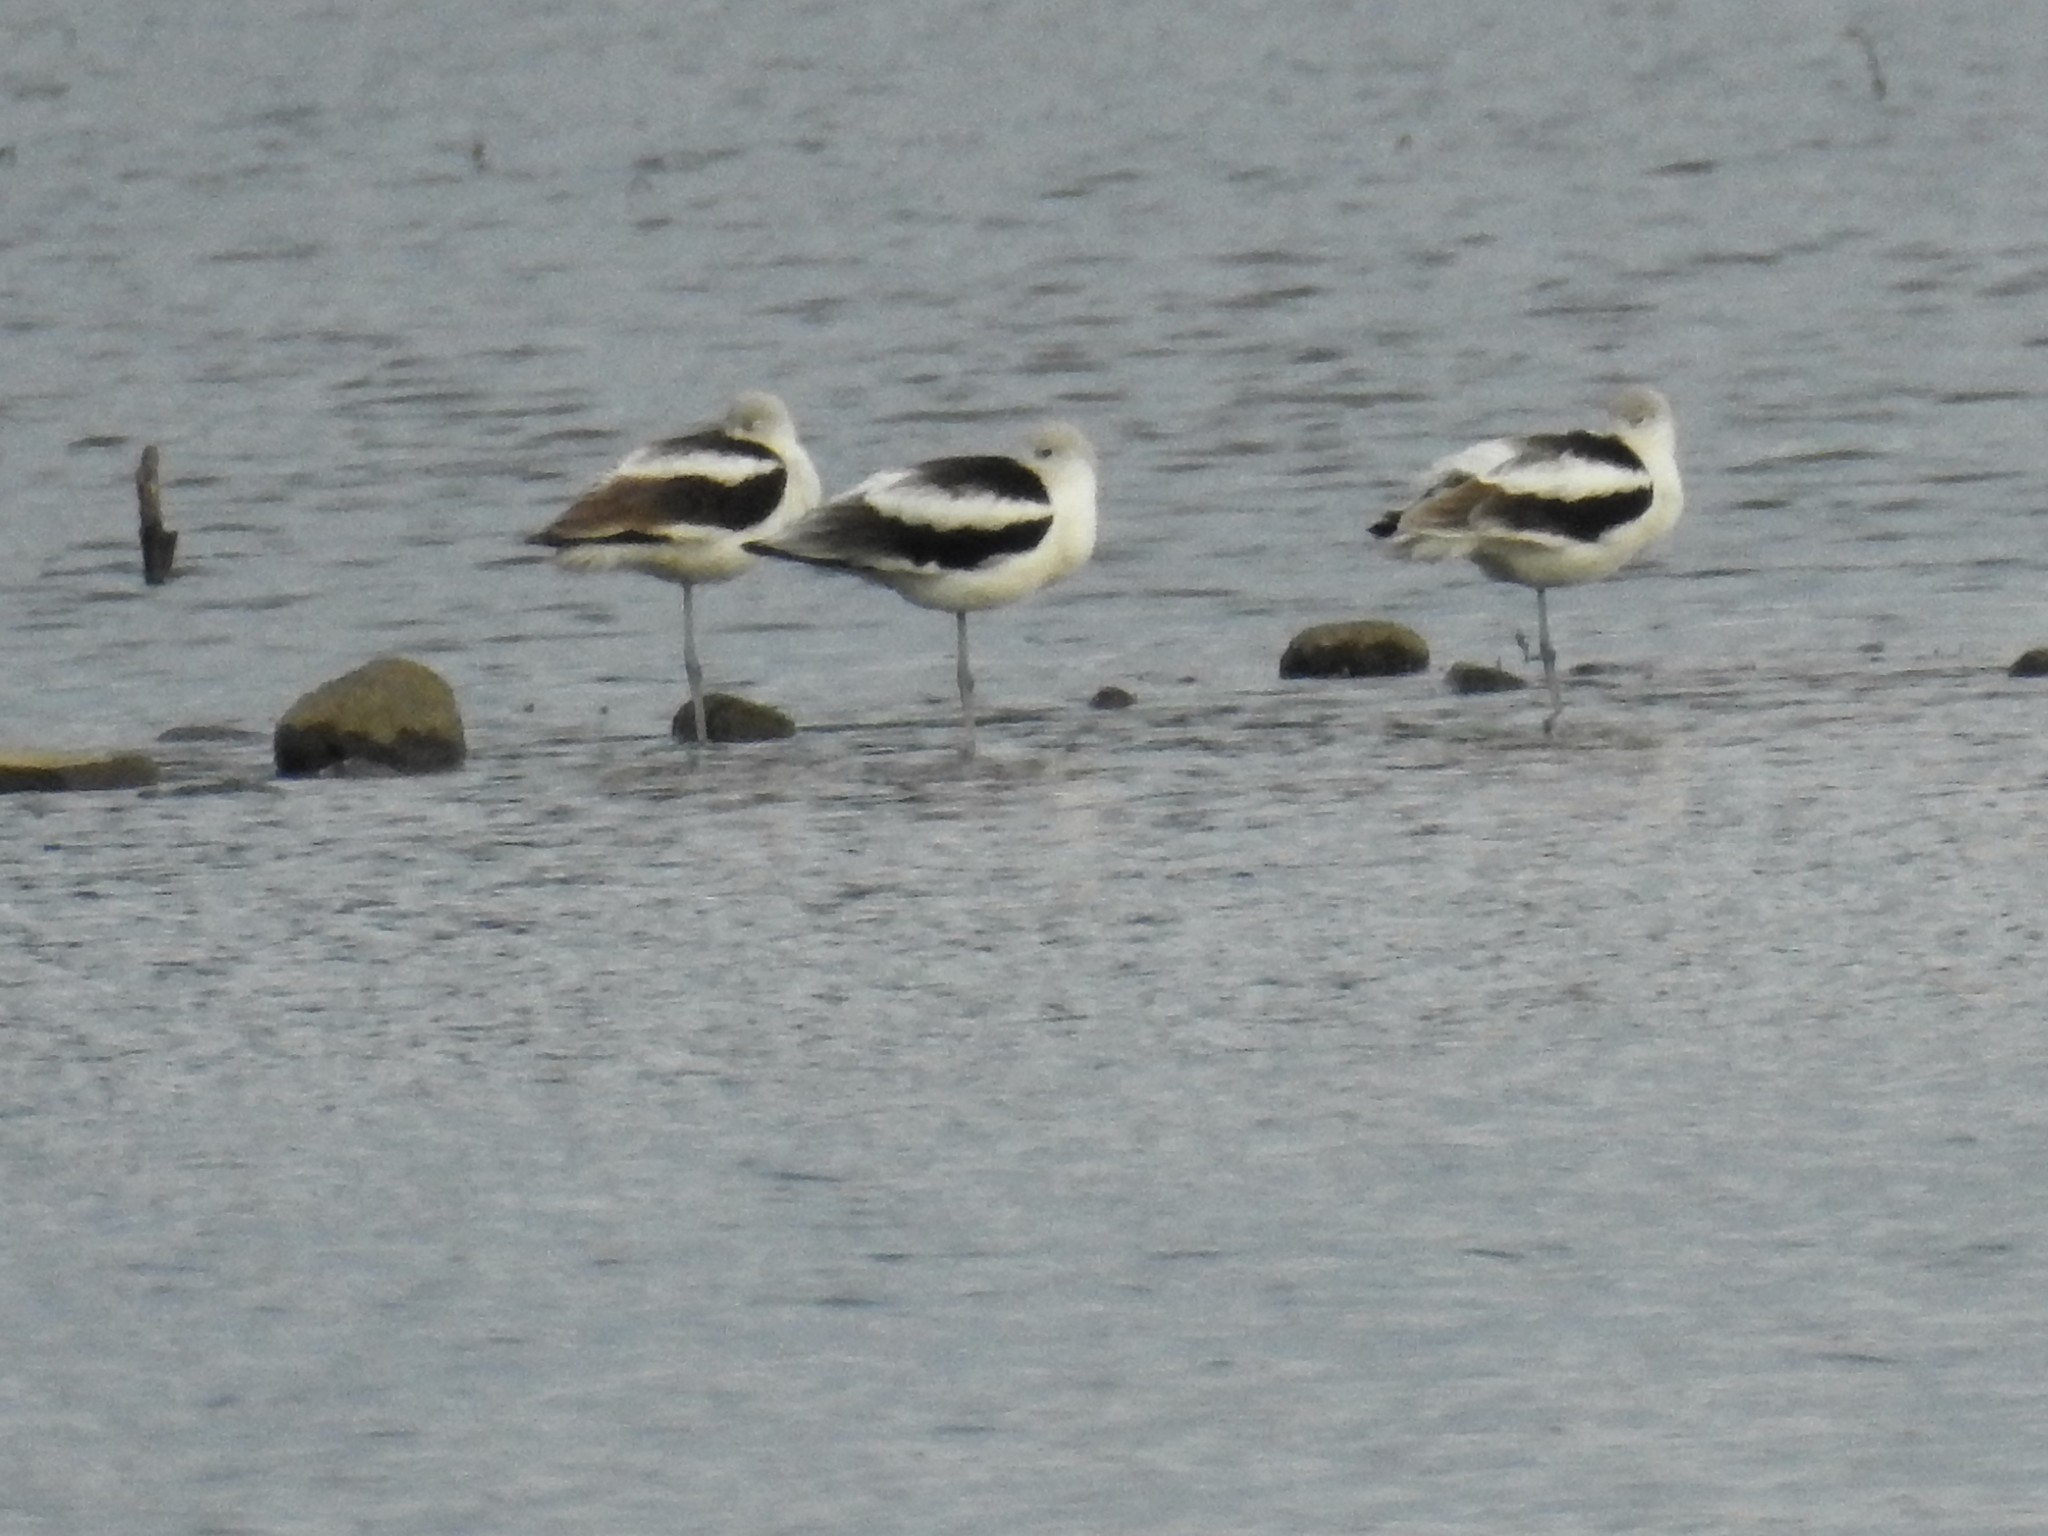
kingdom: Animalia
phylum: Chordata
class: Aves
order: Charadriiformes
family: Recurvirostridae
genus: Recurvirostra
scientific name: Recurvirostra americana
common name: American avocet
